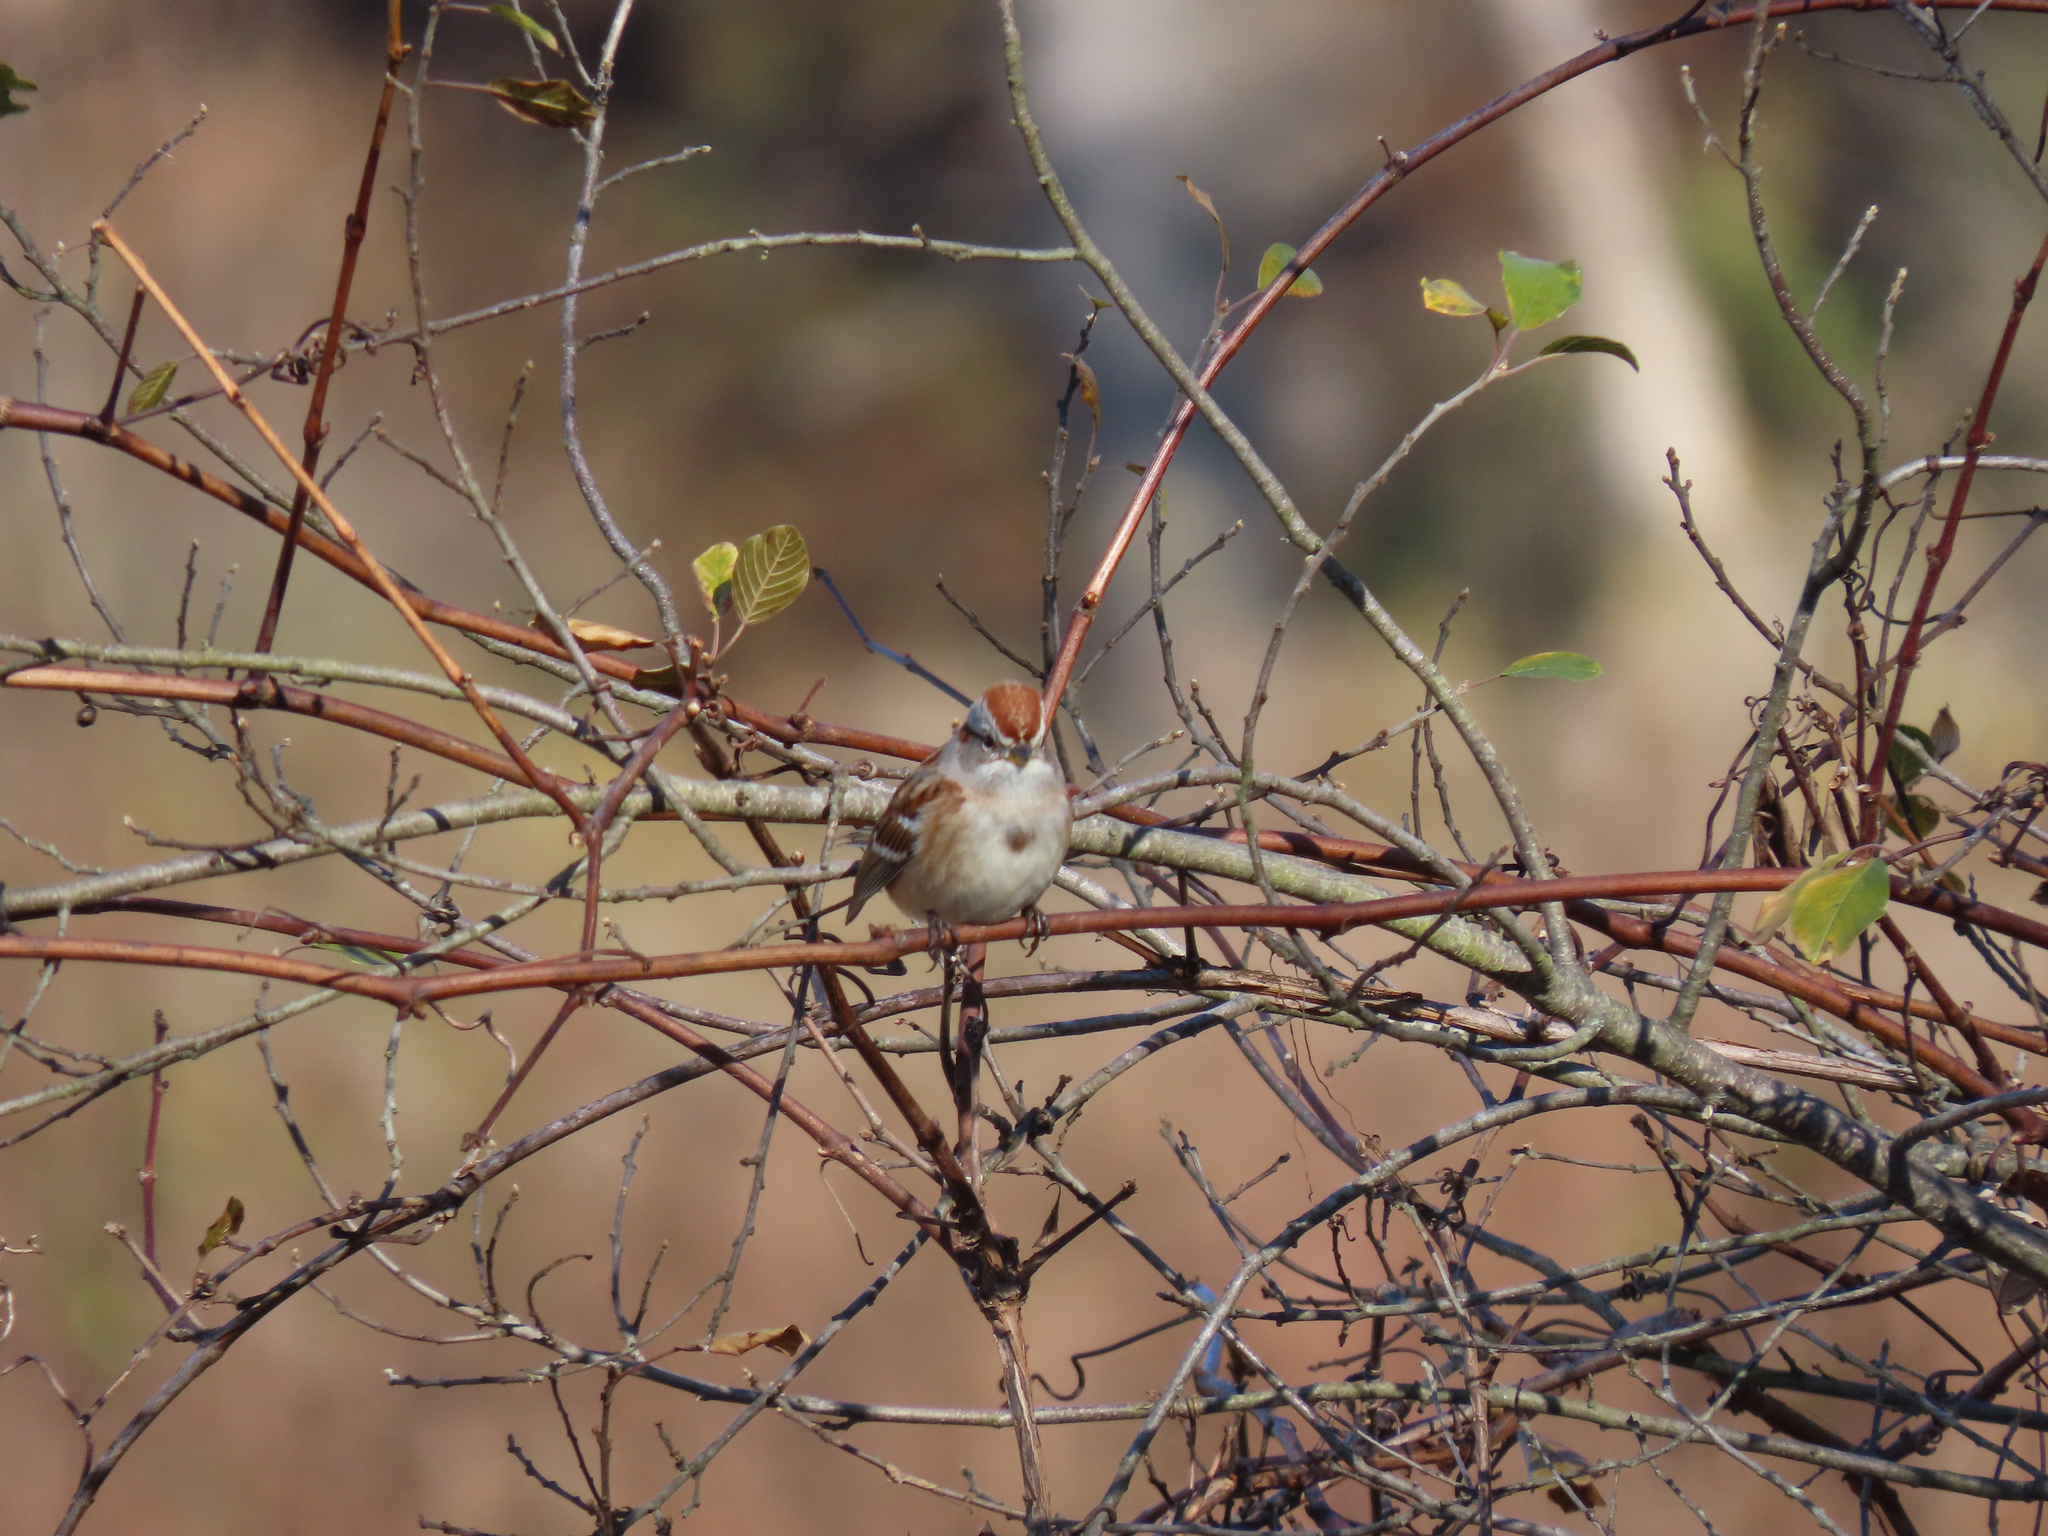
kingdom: Animalia
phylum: Chordata
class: Aves
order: Passeriformes
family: Passerellidae
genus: Spizelloides
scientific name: Spizelloides arborea
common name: American tree sparrow
